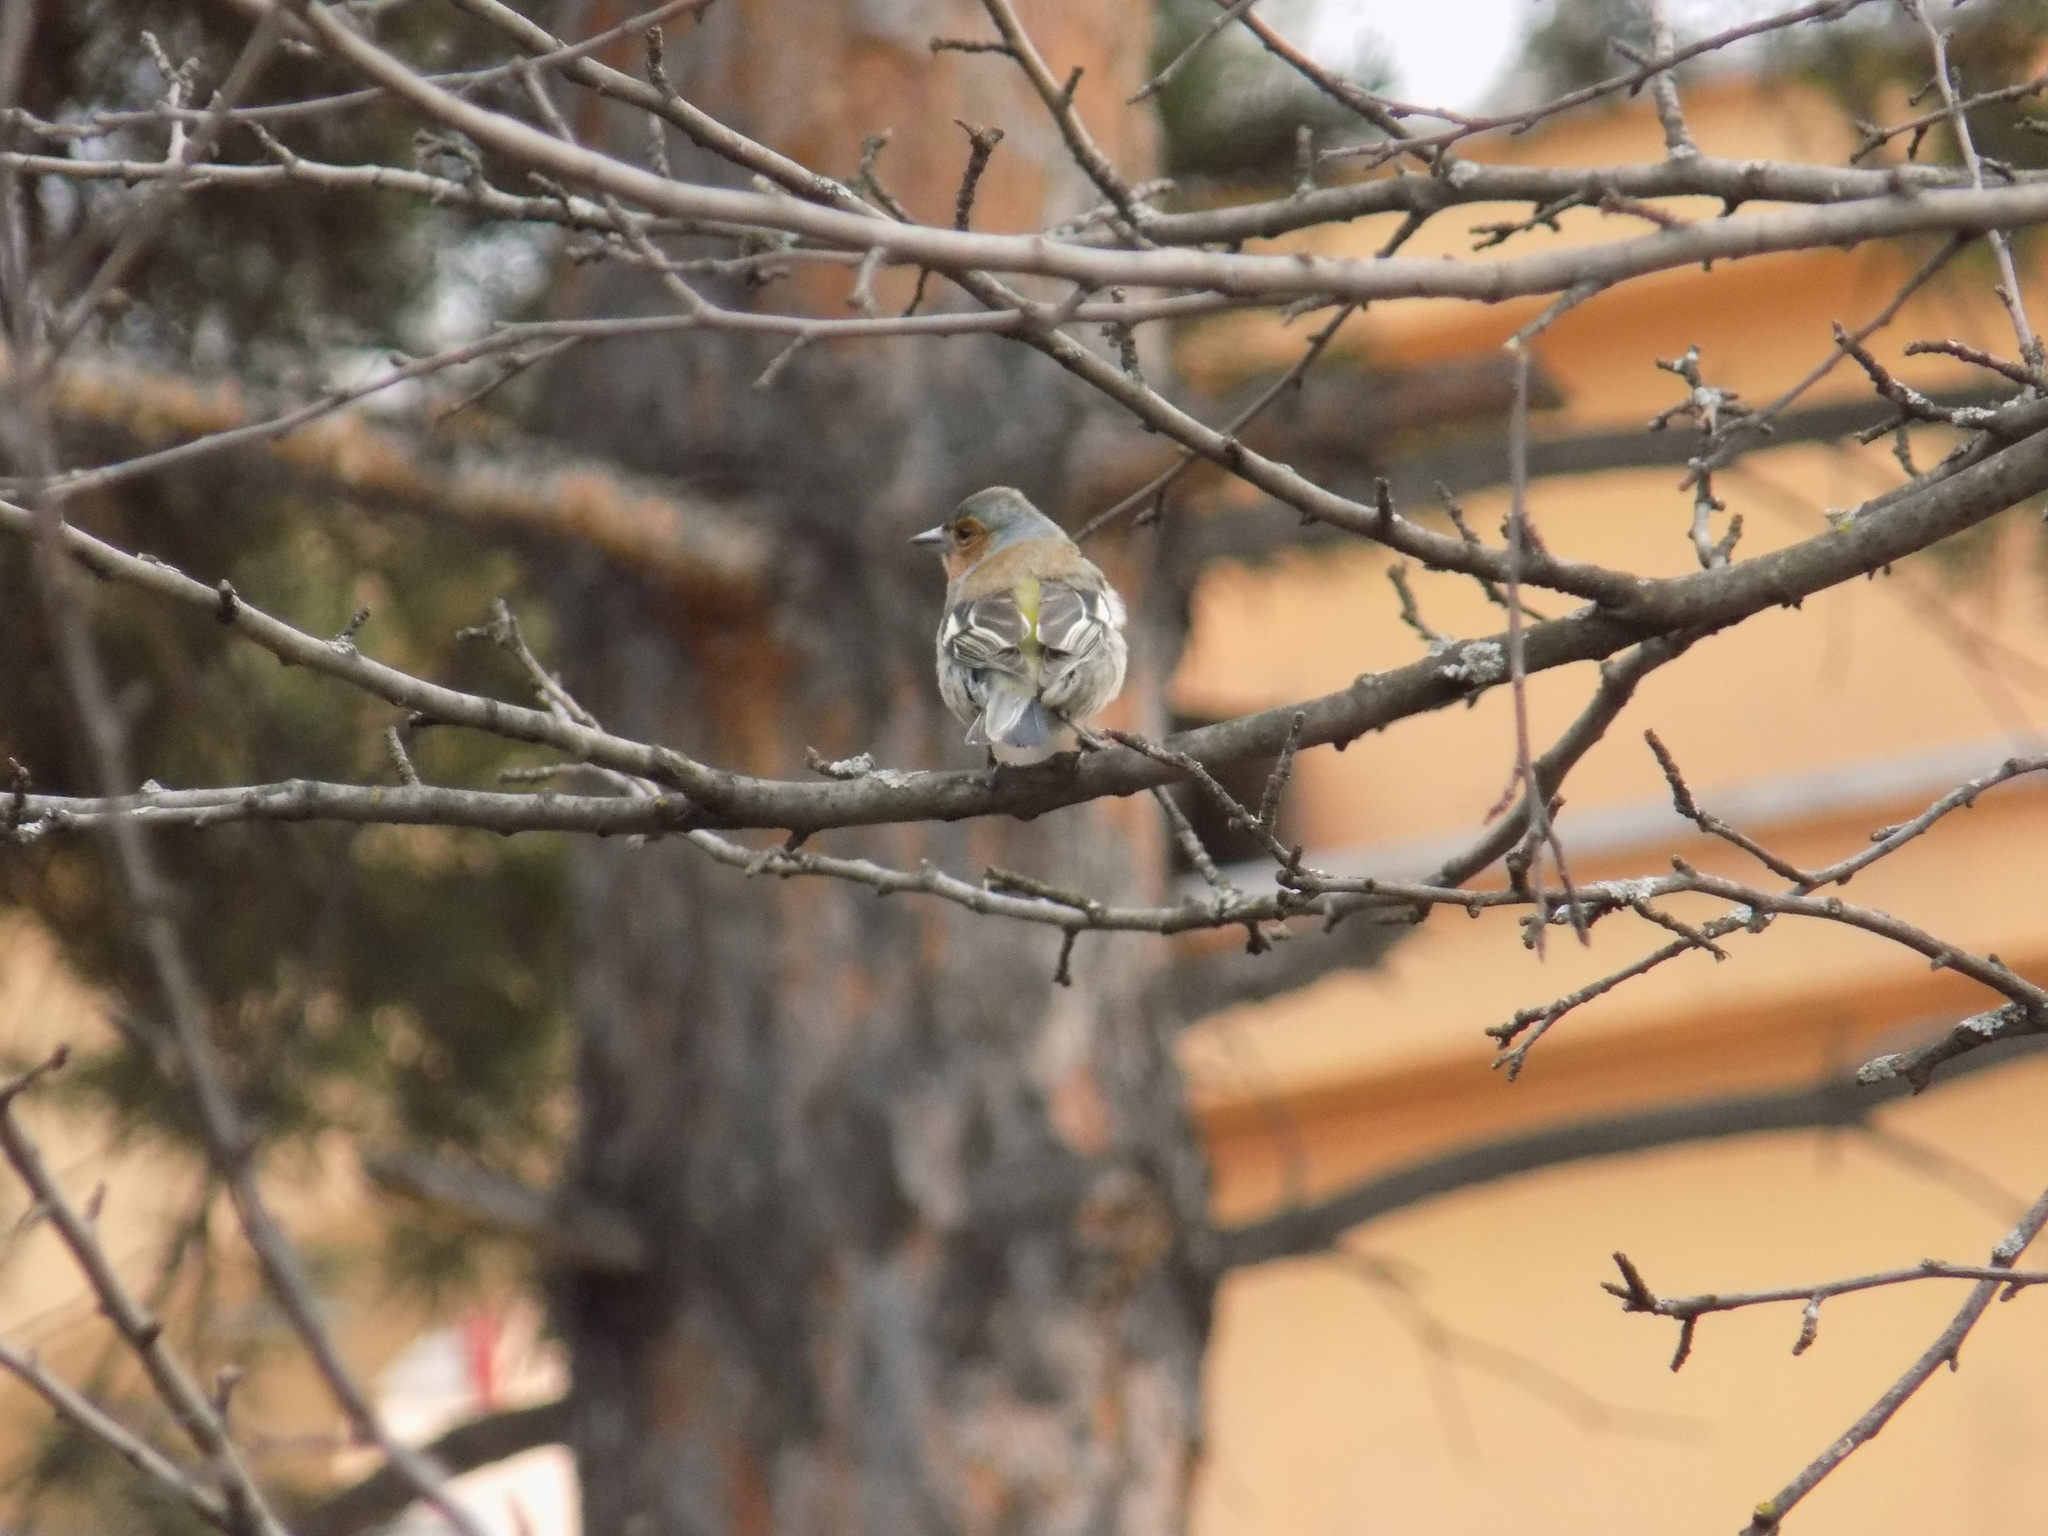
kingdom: Animalia
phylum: Chordata
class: Aves
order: Passeriformes
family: Fringillidae
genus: Fringilla
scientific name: Fringilla coelebs
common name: Common chaffinch
